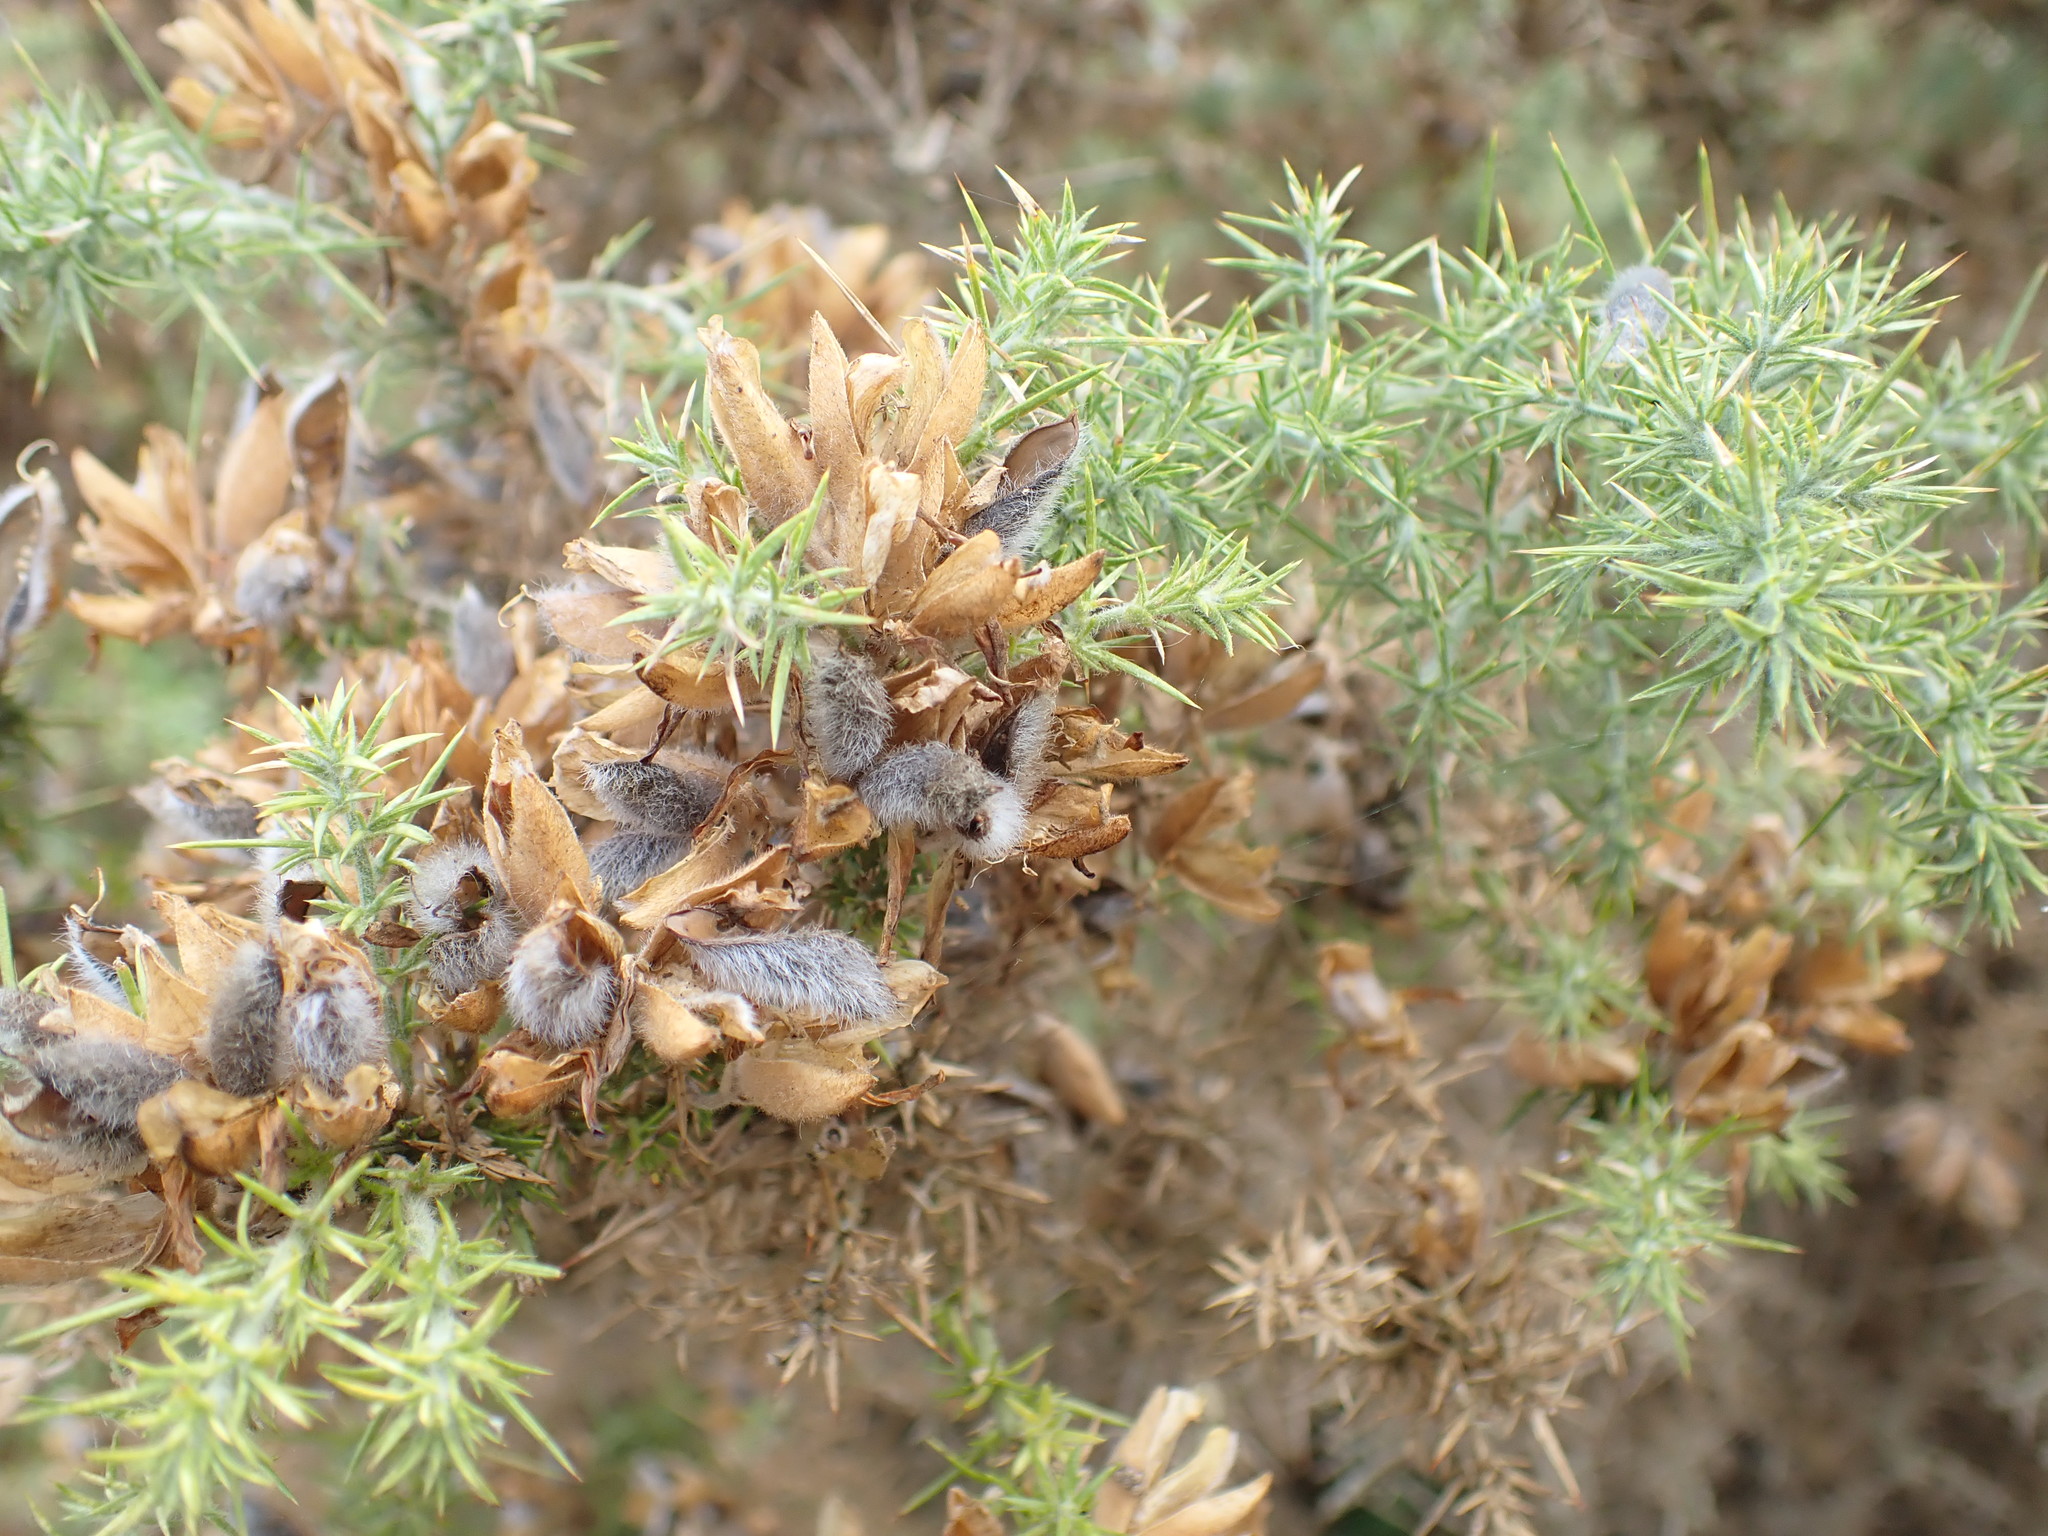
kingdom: Plantae
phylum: Tracheophyta
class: Magnoliopsida
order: Fabales
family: Fabaceae
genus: Ulex
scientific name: Ulex europaeus
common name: Common gorse
